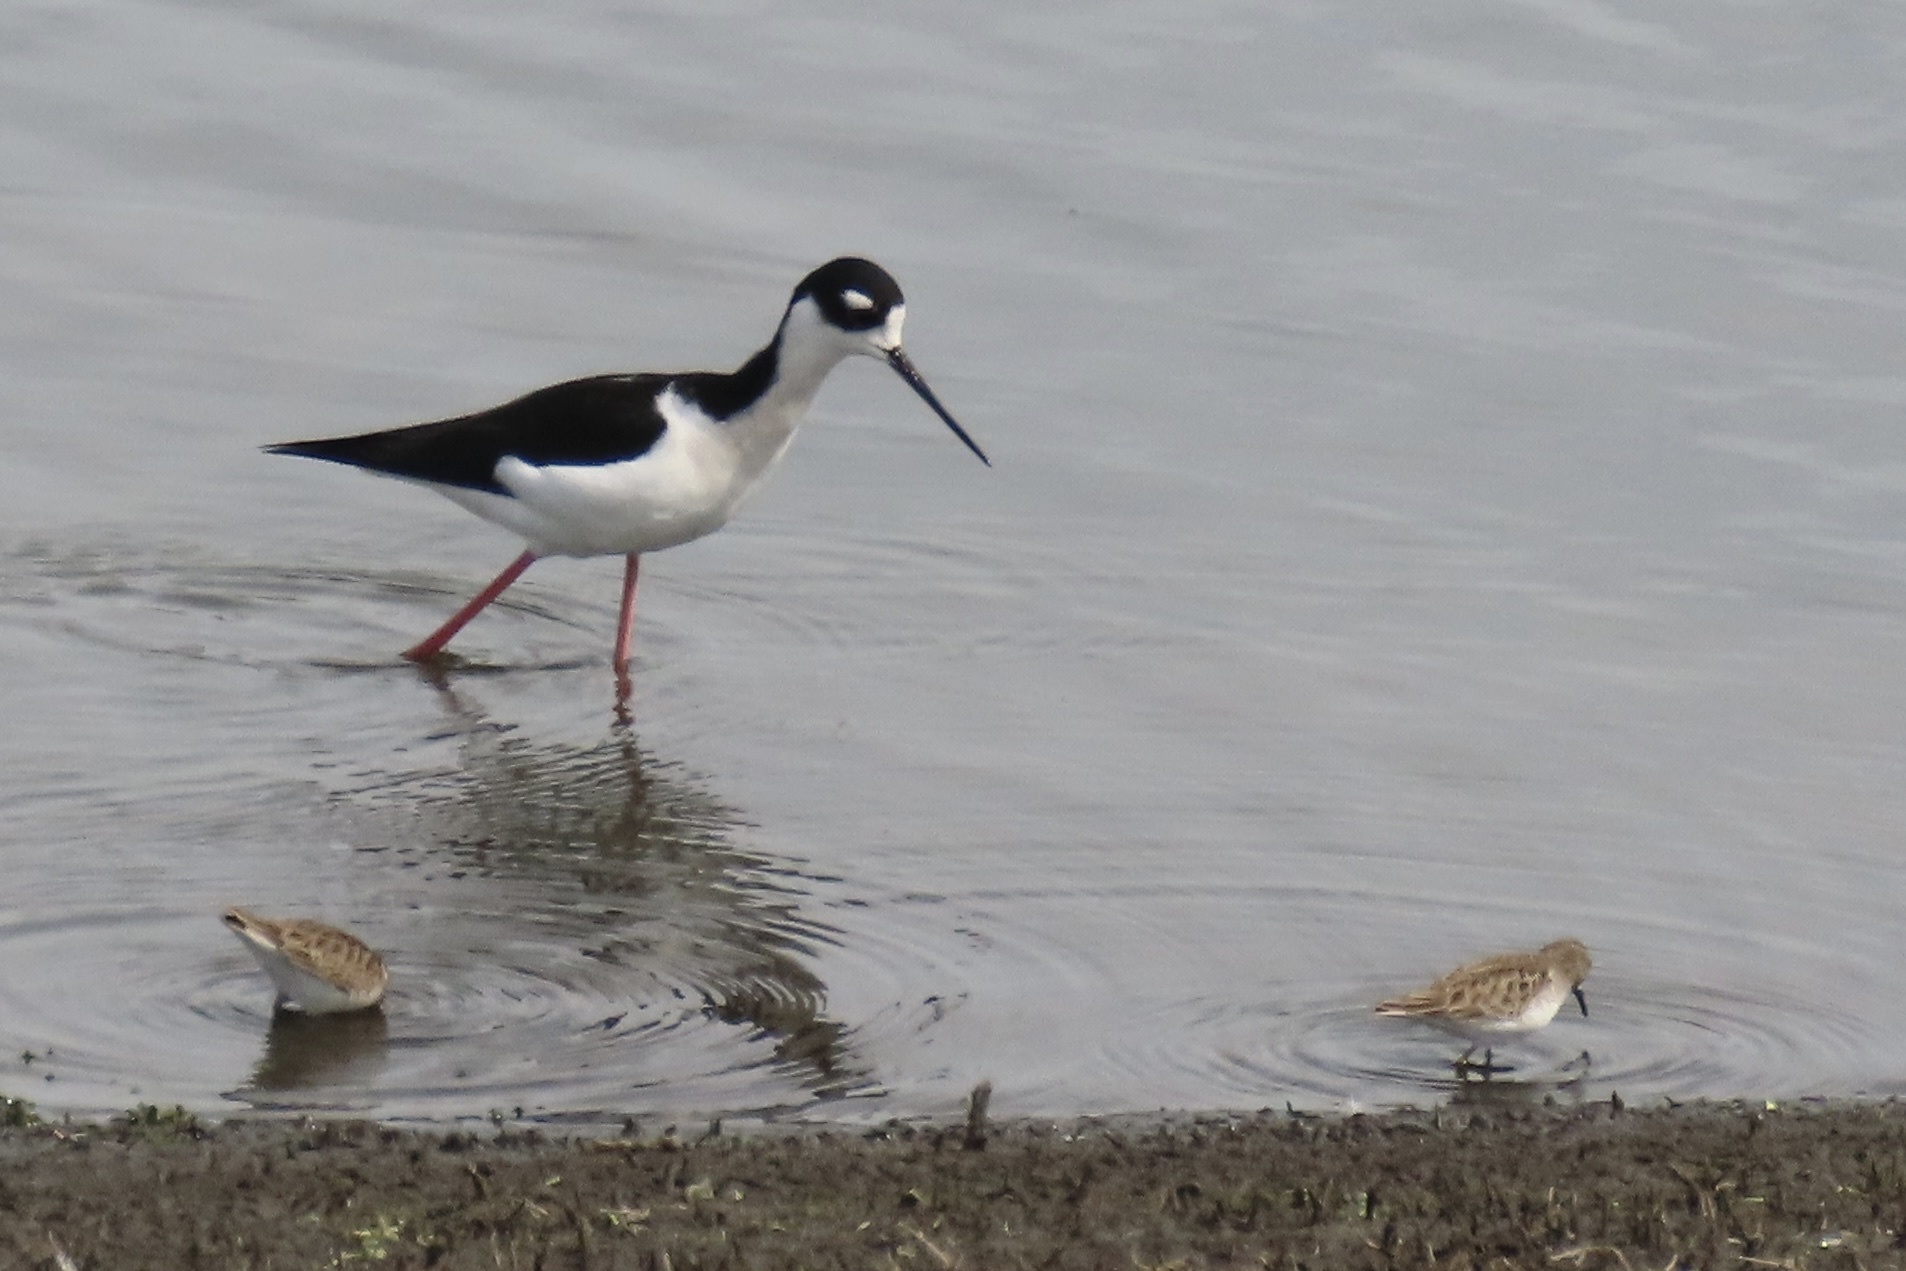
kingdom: Animalia
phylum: Chordata
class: Aves
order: Charadriiformes
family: Recurvirostridae
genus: Himantopus
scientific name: Himantopus mexicanus
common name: Black-necked stilt
